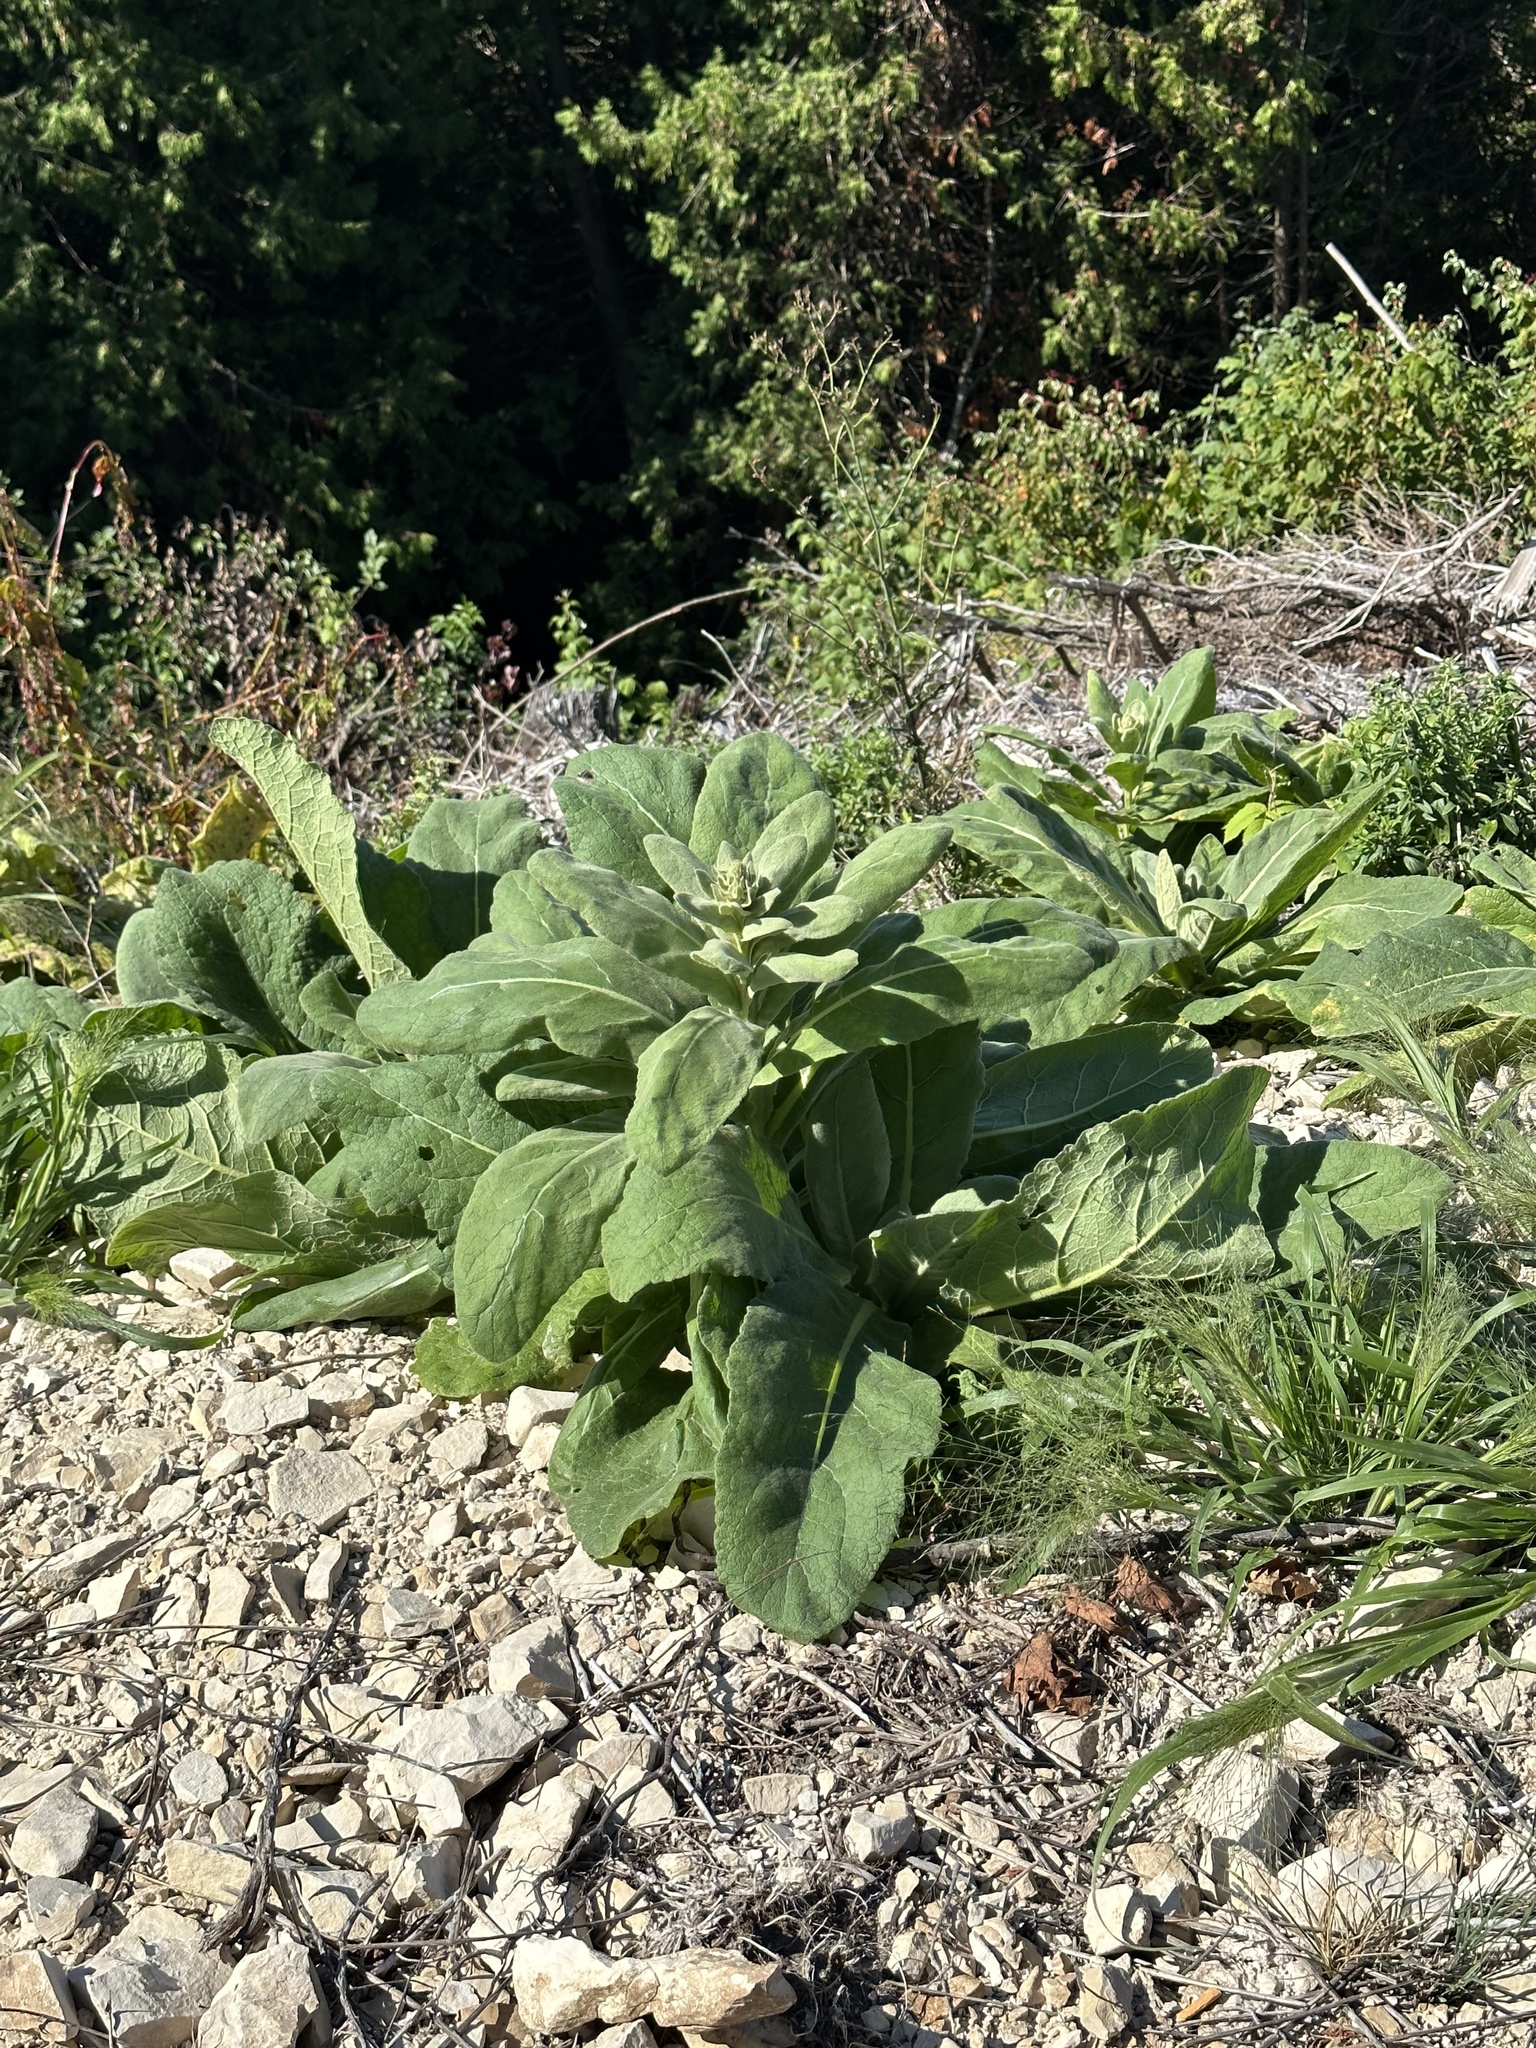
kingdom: Plantae
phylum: Tracheophyta
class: Magnoliopsida
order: Lamiales
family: Scrophulariaceae
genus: Verbascum
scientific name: Verbascum thapsus
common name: Common mullein
